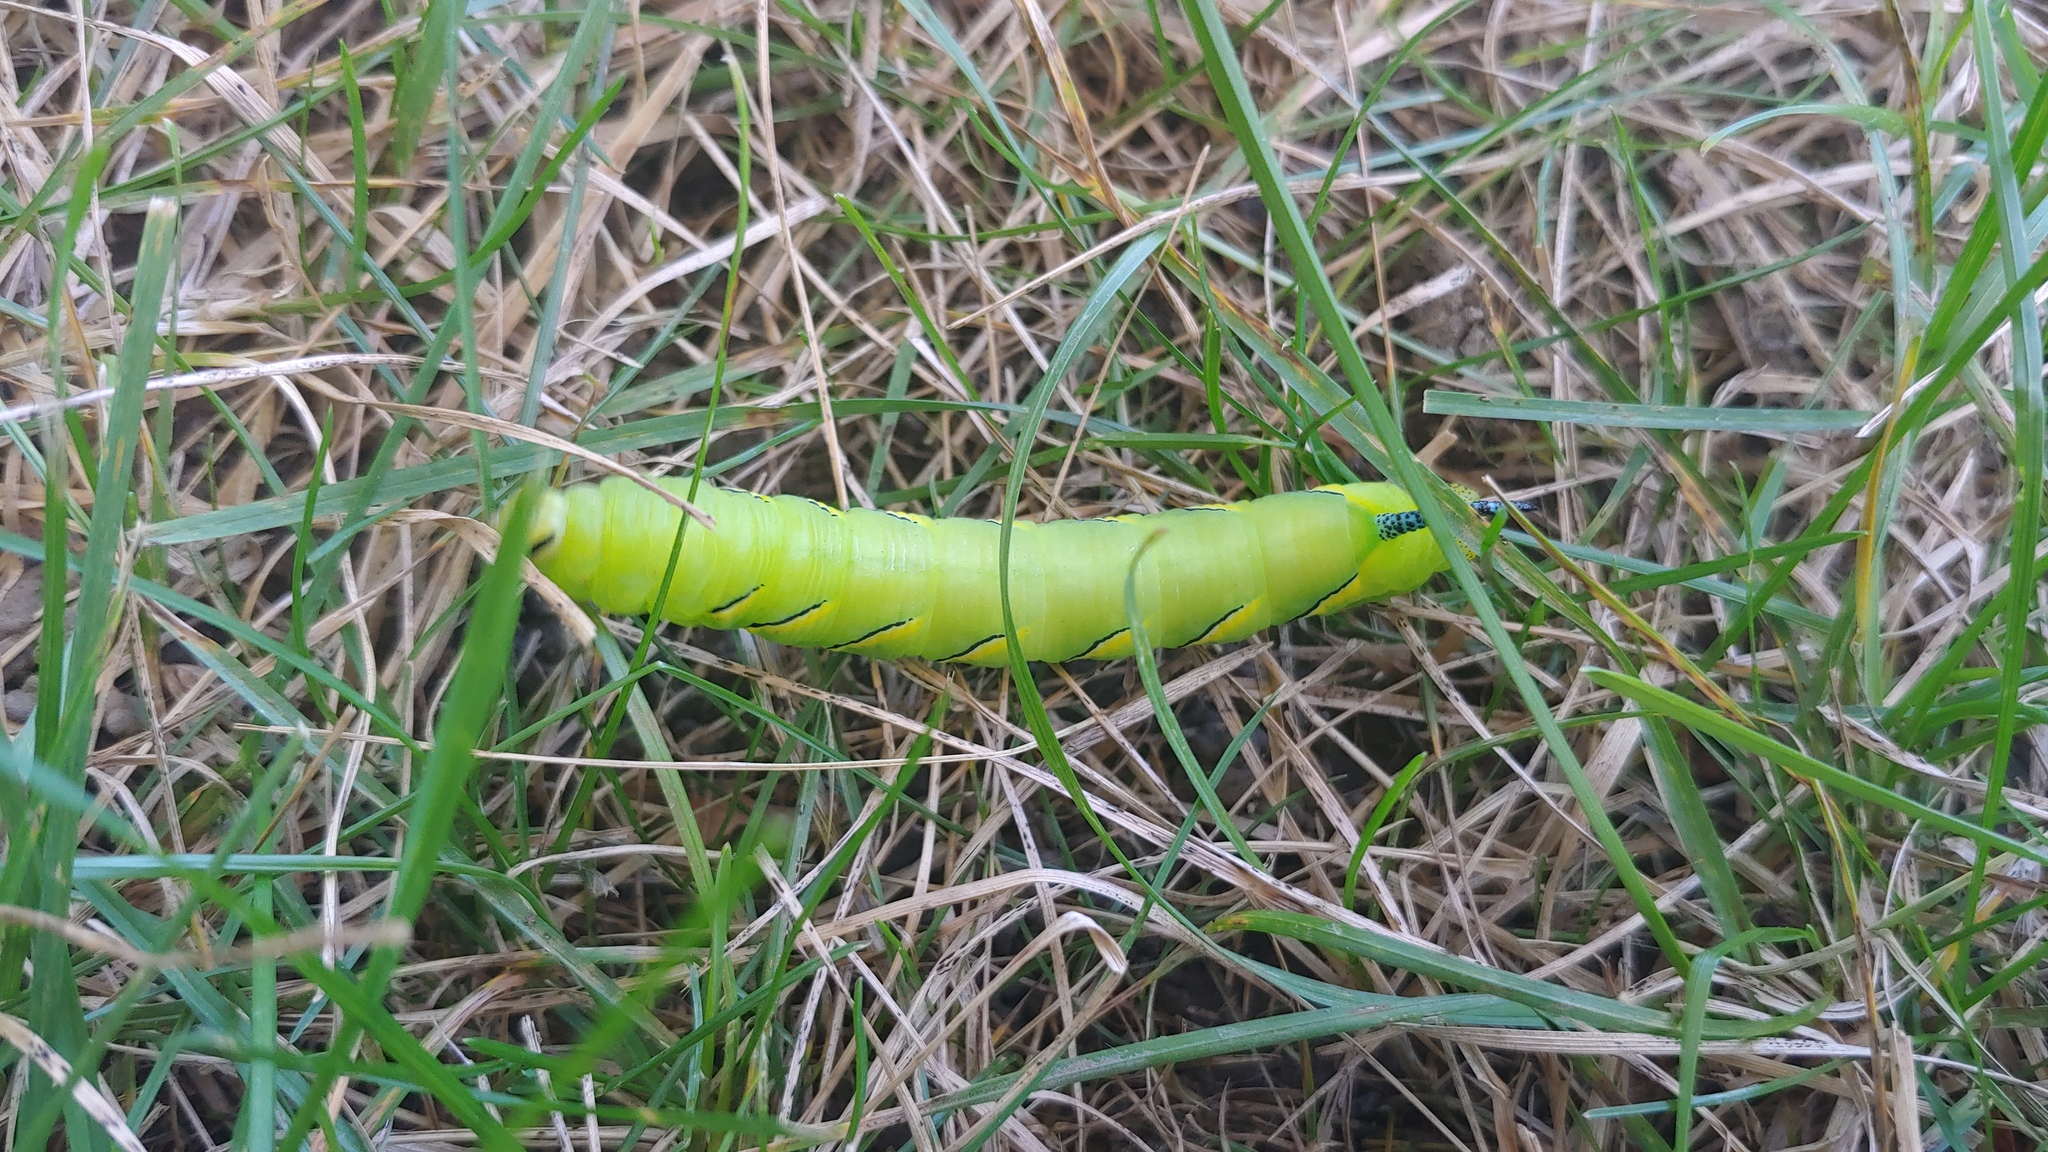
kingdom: Animalia
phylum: Arthropoda
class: Insecta
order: Lepidoptera
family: Sphingidae
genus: Sphinx
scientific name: Sphinx kalmiae
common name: Laurel sphinx
